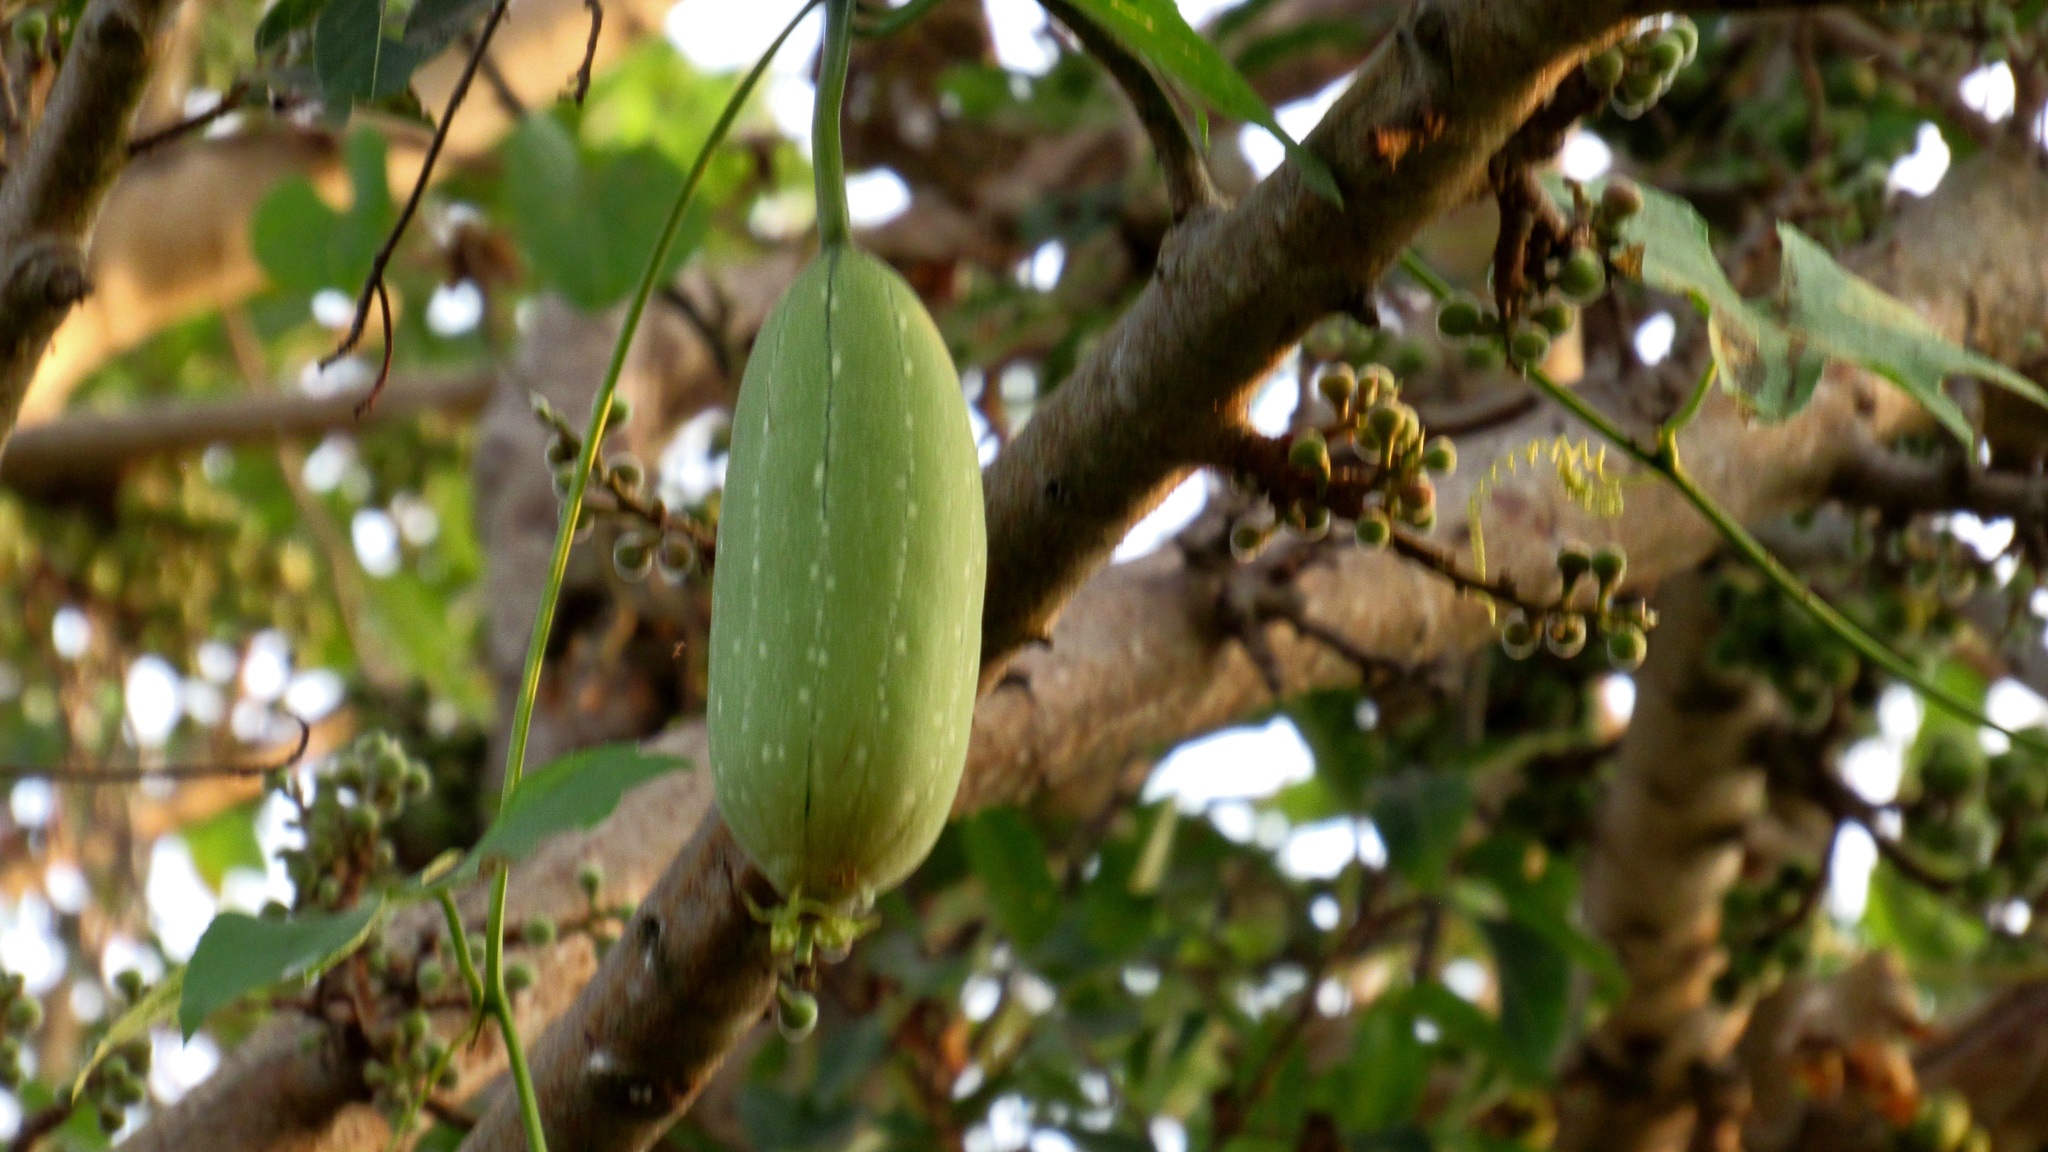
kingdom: Plantae
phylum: Tracheophyta
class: Magnoliopsida
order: Cucurbitales
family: Cucurbitaceae
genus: Luffa
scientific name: Luffa aegyptiaca
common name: Sponge gourd
